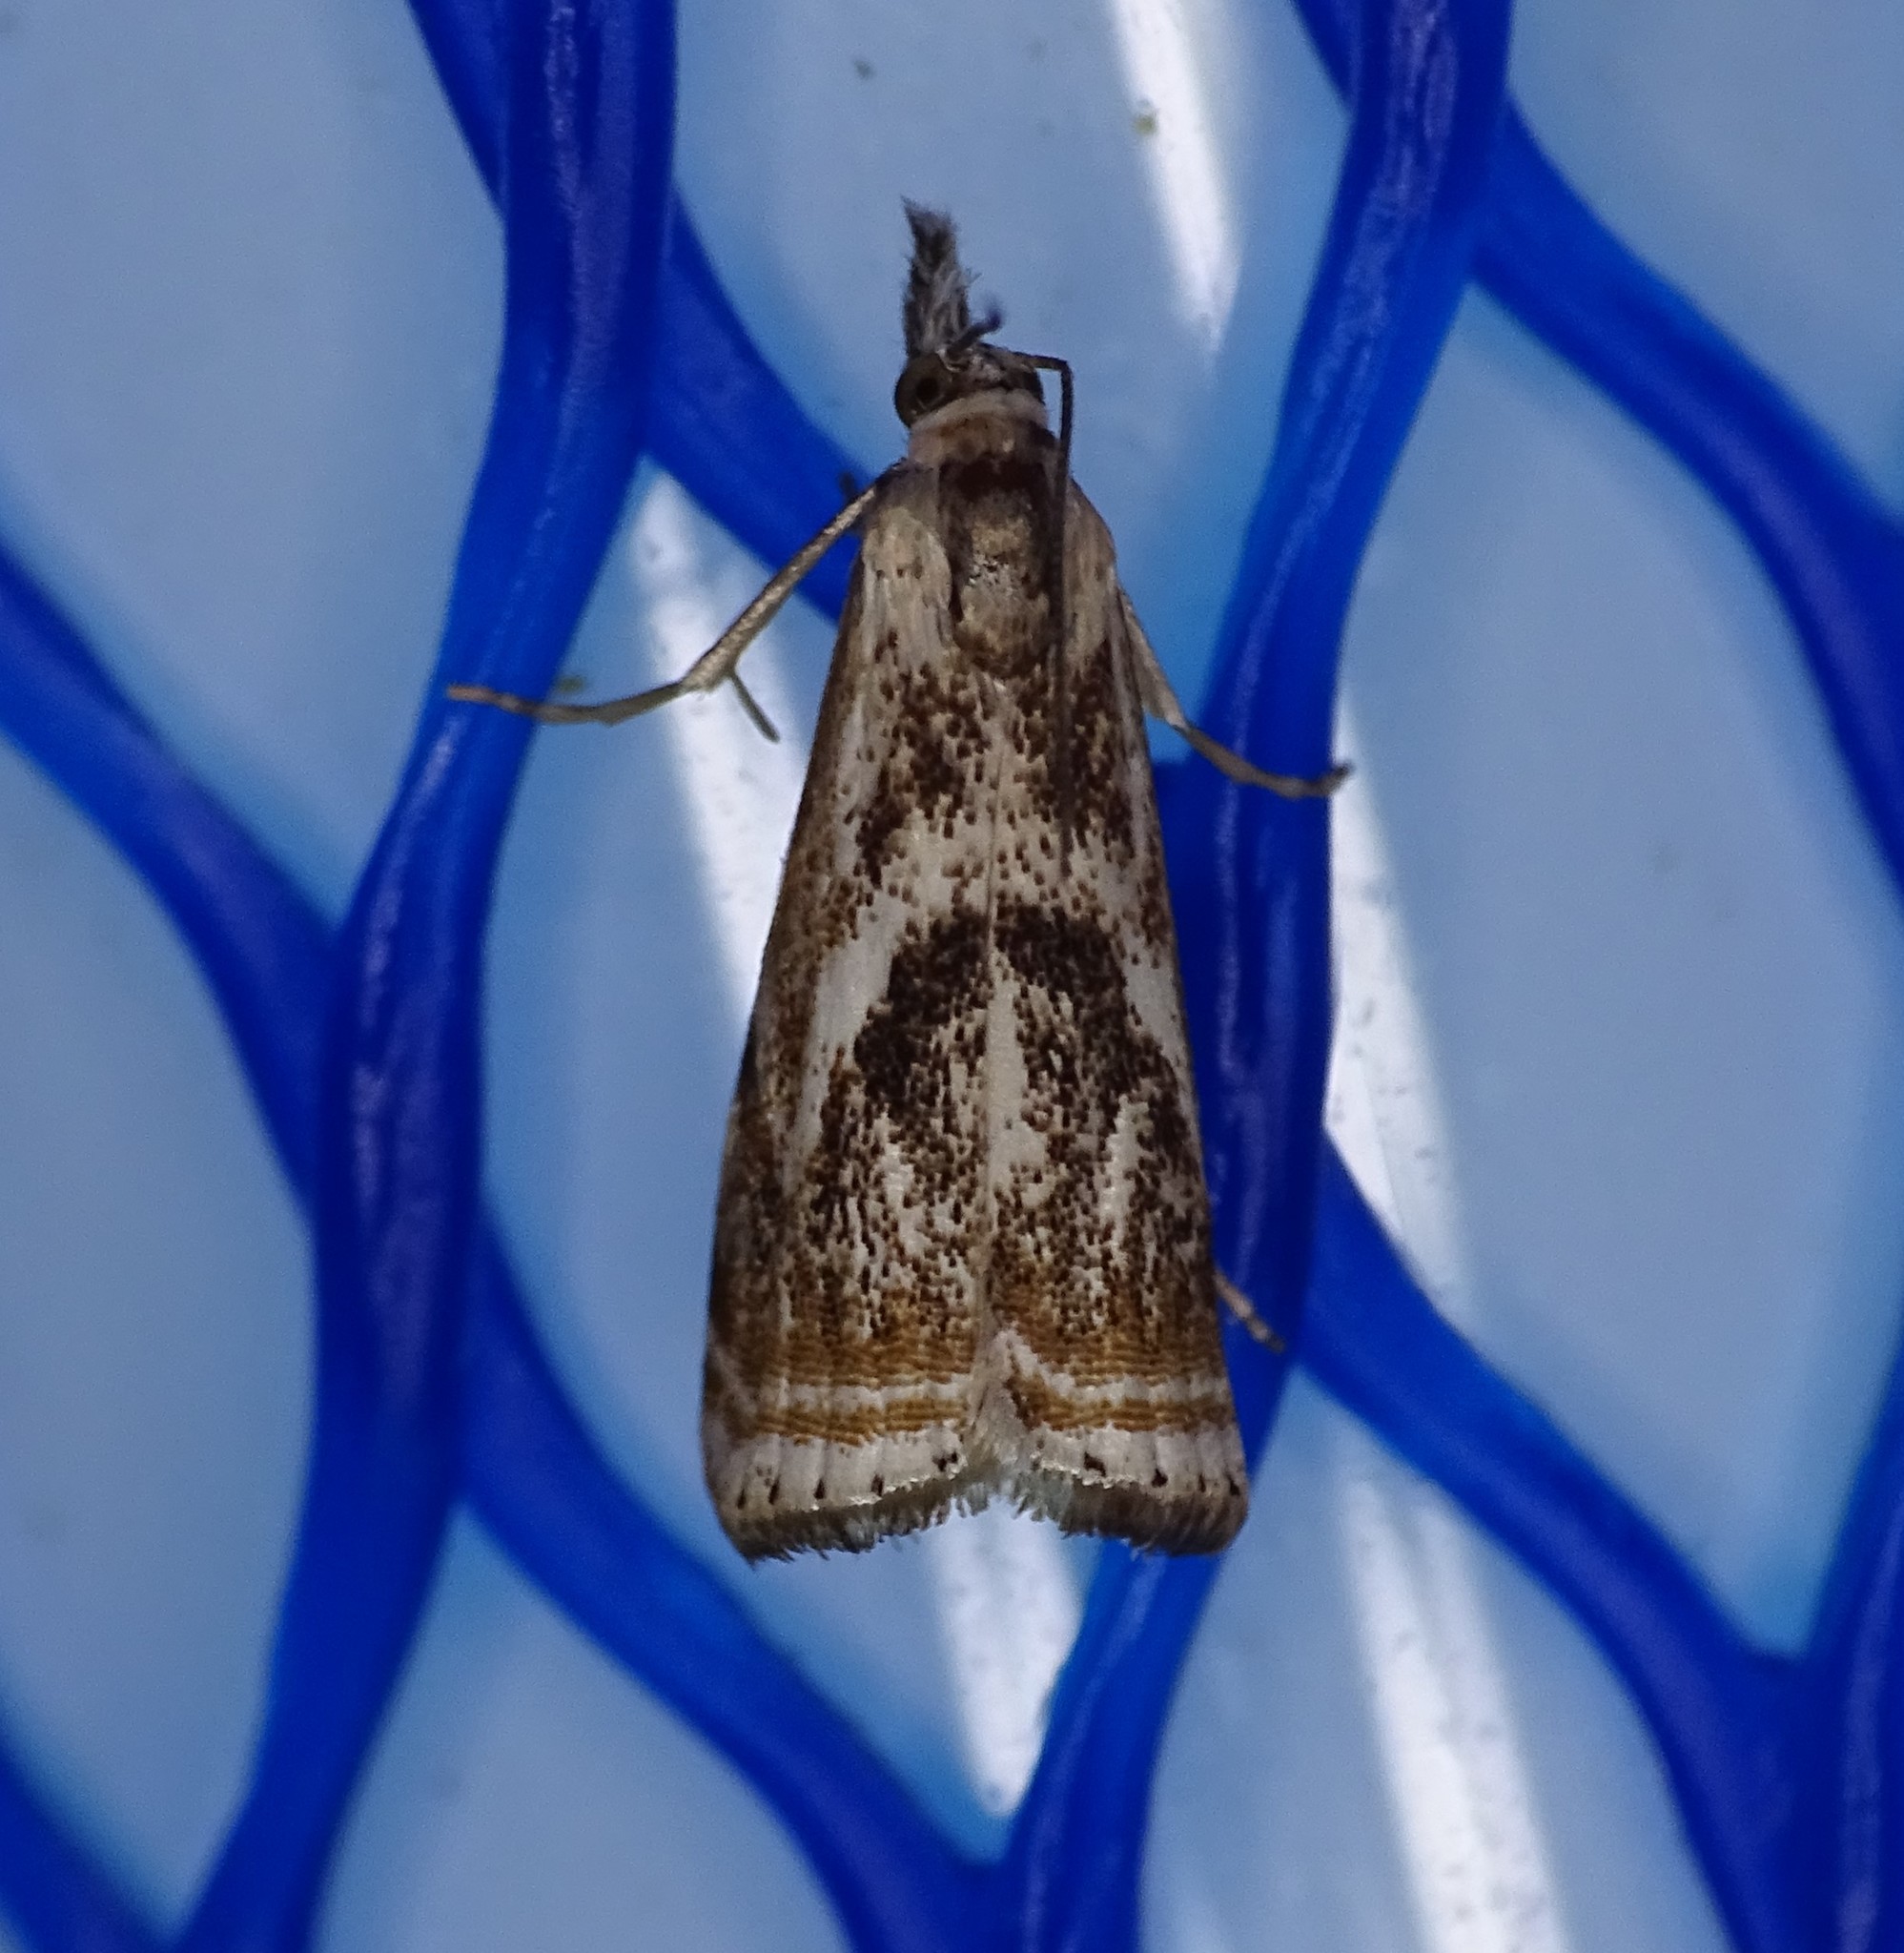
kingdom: Animalia
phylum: Arthropoda
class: Insecta
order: Lepidoptera
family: Crambidae
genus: Microcrambus
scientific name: Microcrambus elegans
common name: Elegant grass-veneer
